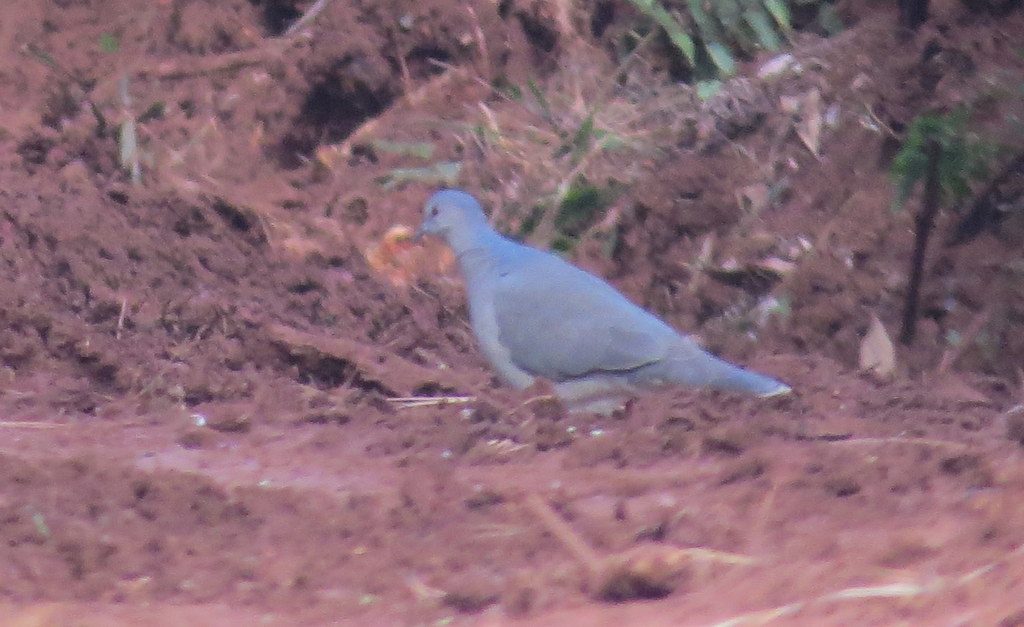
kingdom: Animalia
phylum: Chordata
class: Aves
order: Columbiformes
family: Columbidae
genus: Leptotila
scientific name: Leptotila verreauxi
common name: White-tipped dove
